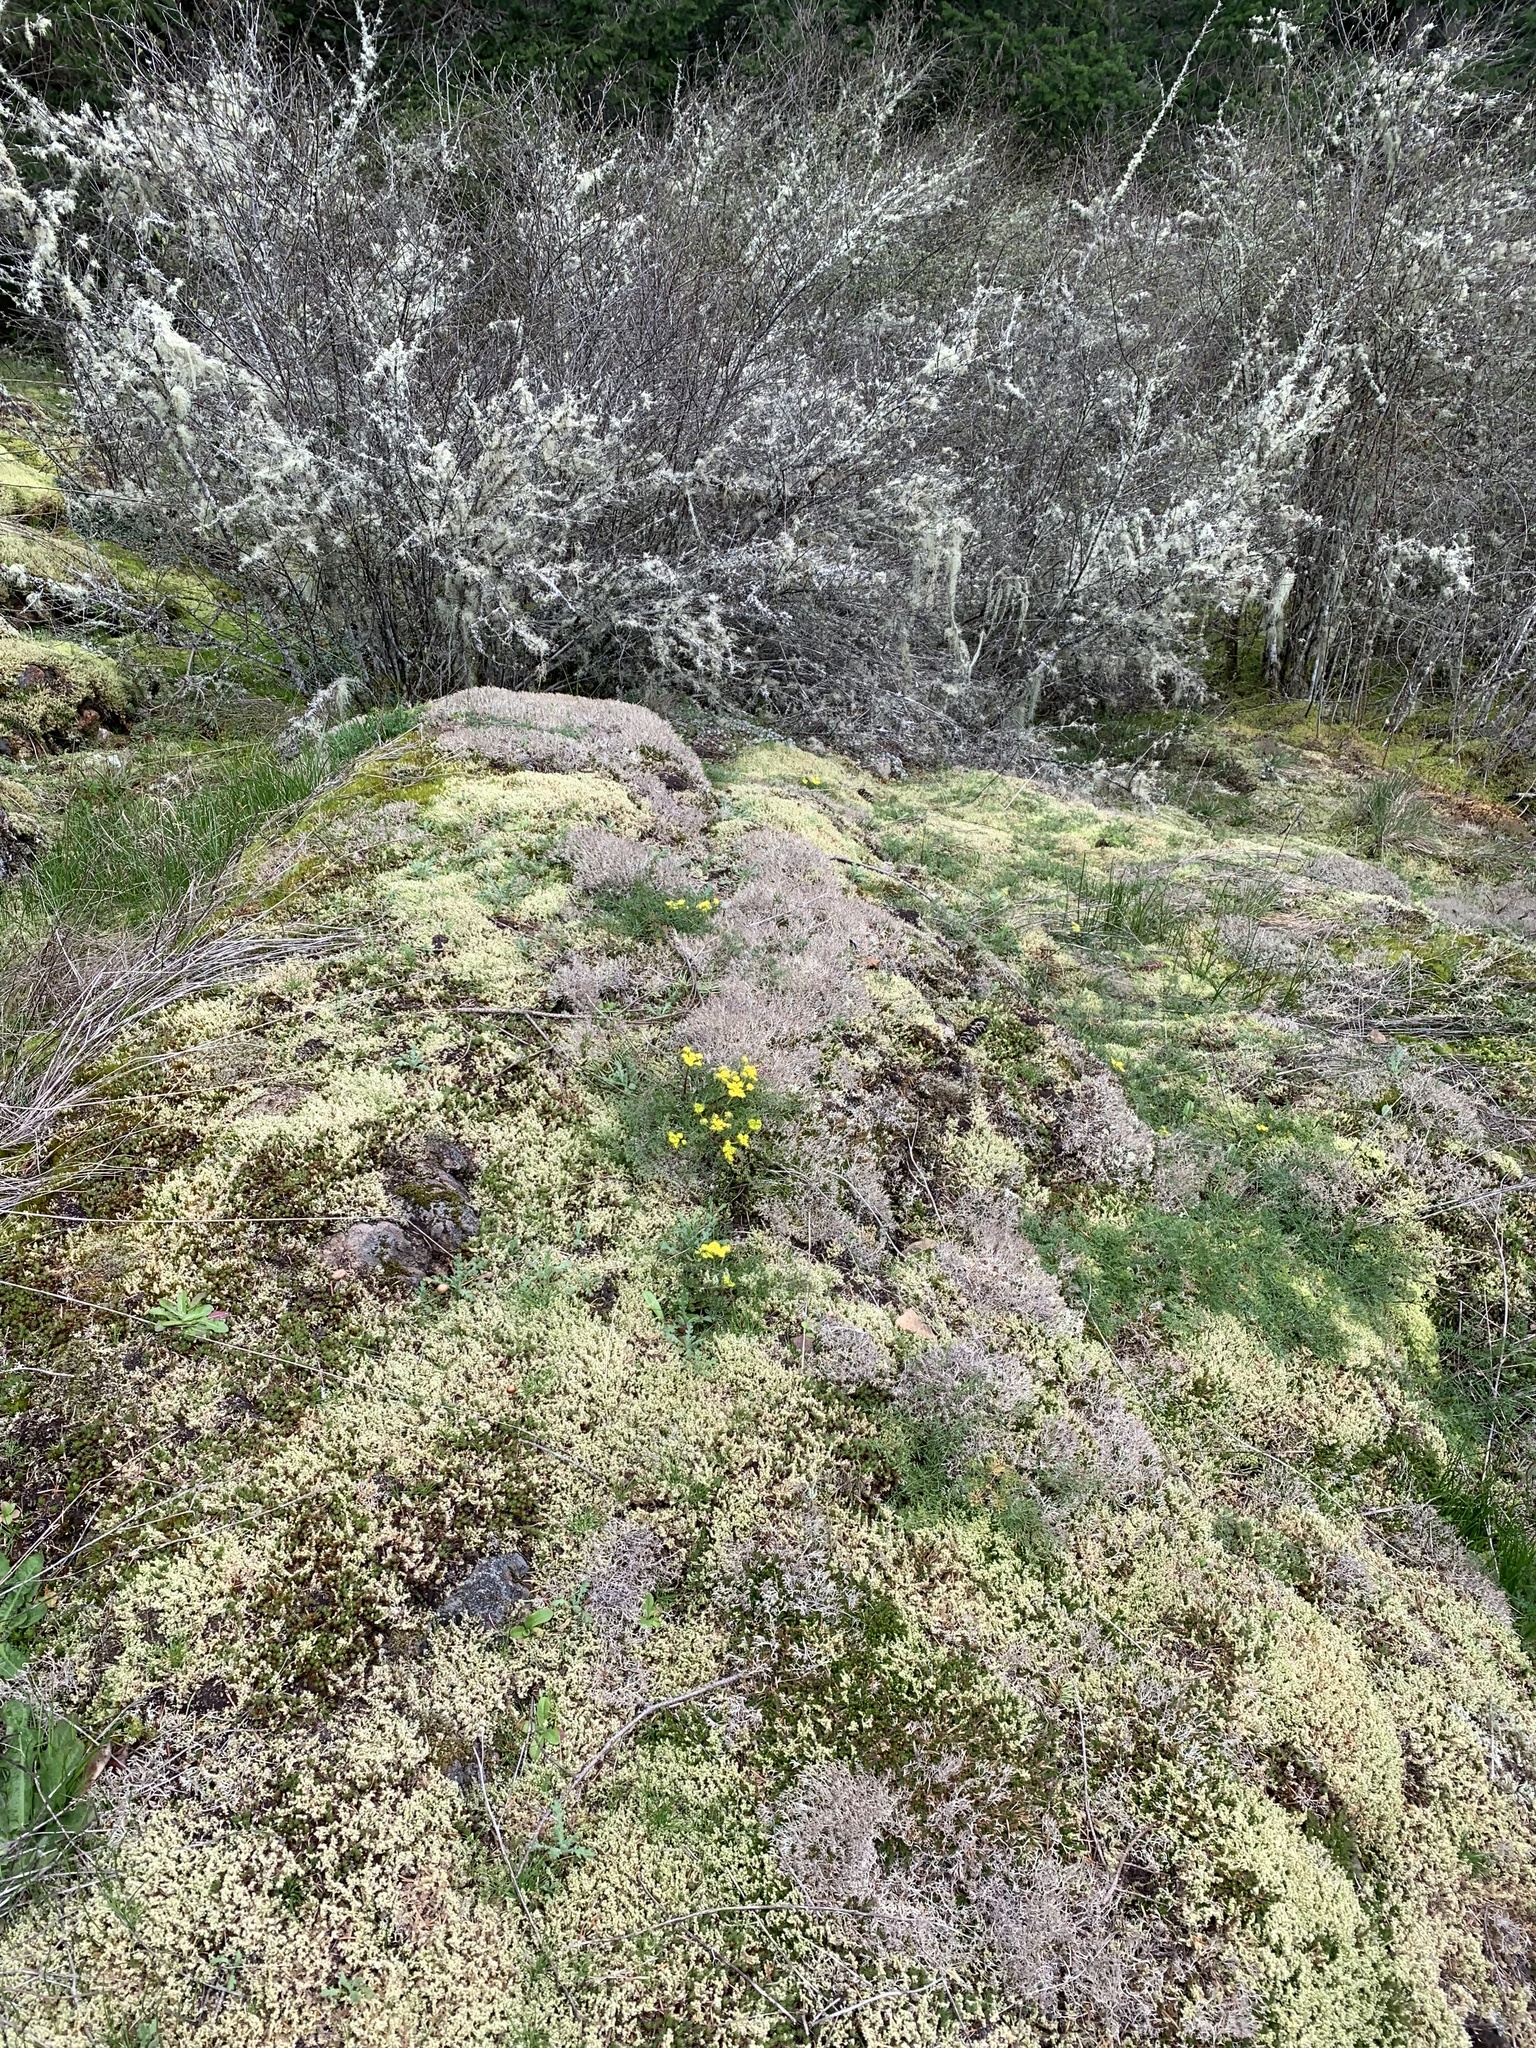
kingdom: Plantae
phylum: Tracheophyta
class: Magnoliopsida
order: Apiales
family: Apiaceae
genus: Lomatium
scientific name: Lomatium utriculatum
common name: Fine-leaf desert-parsley
